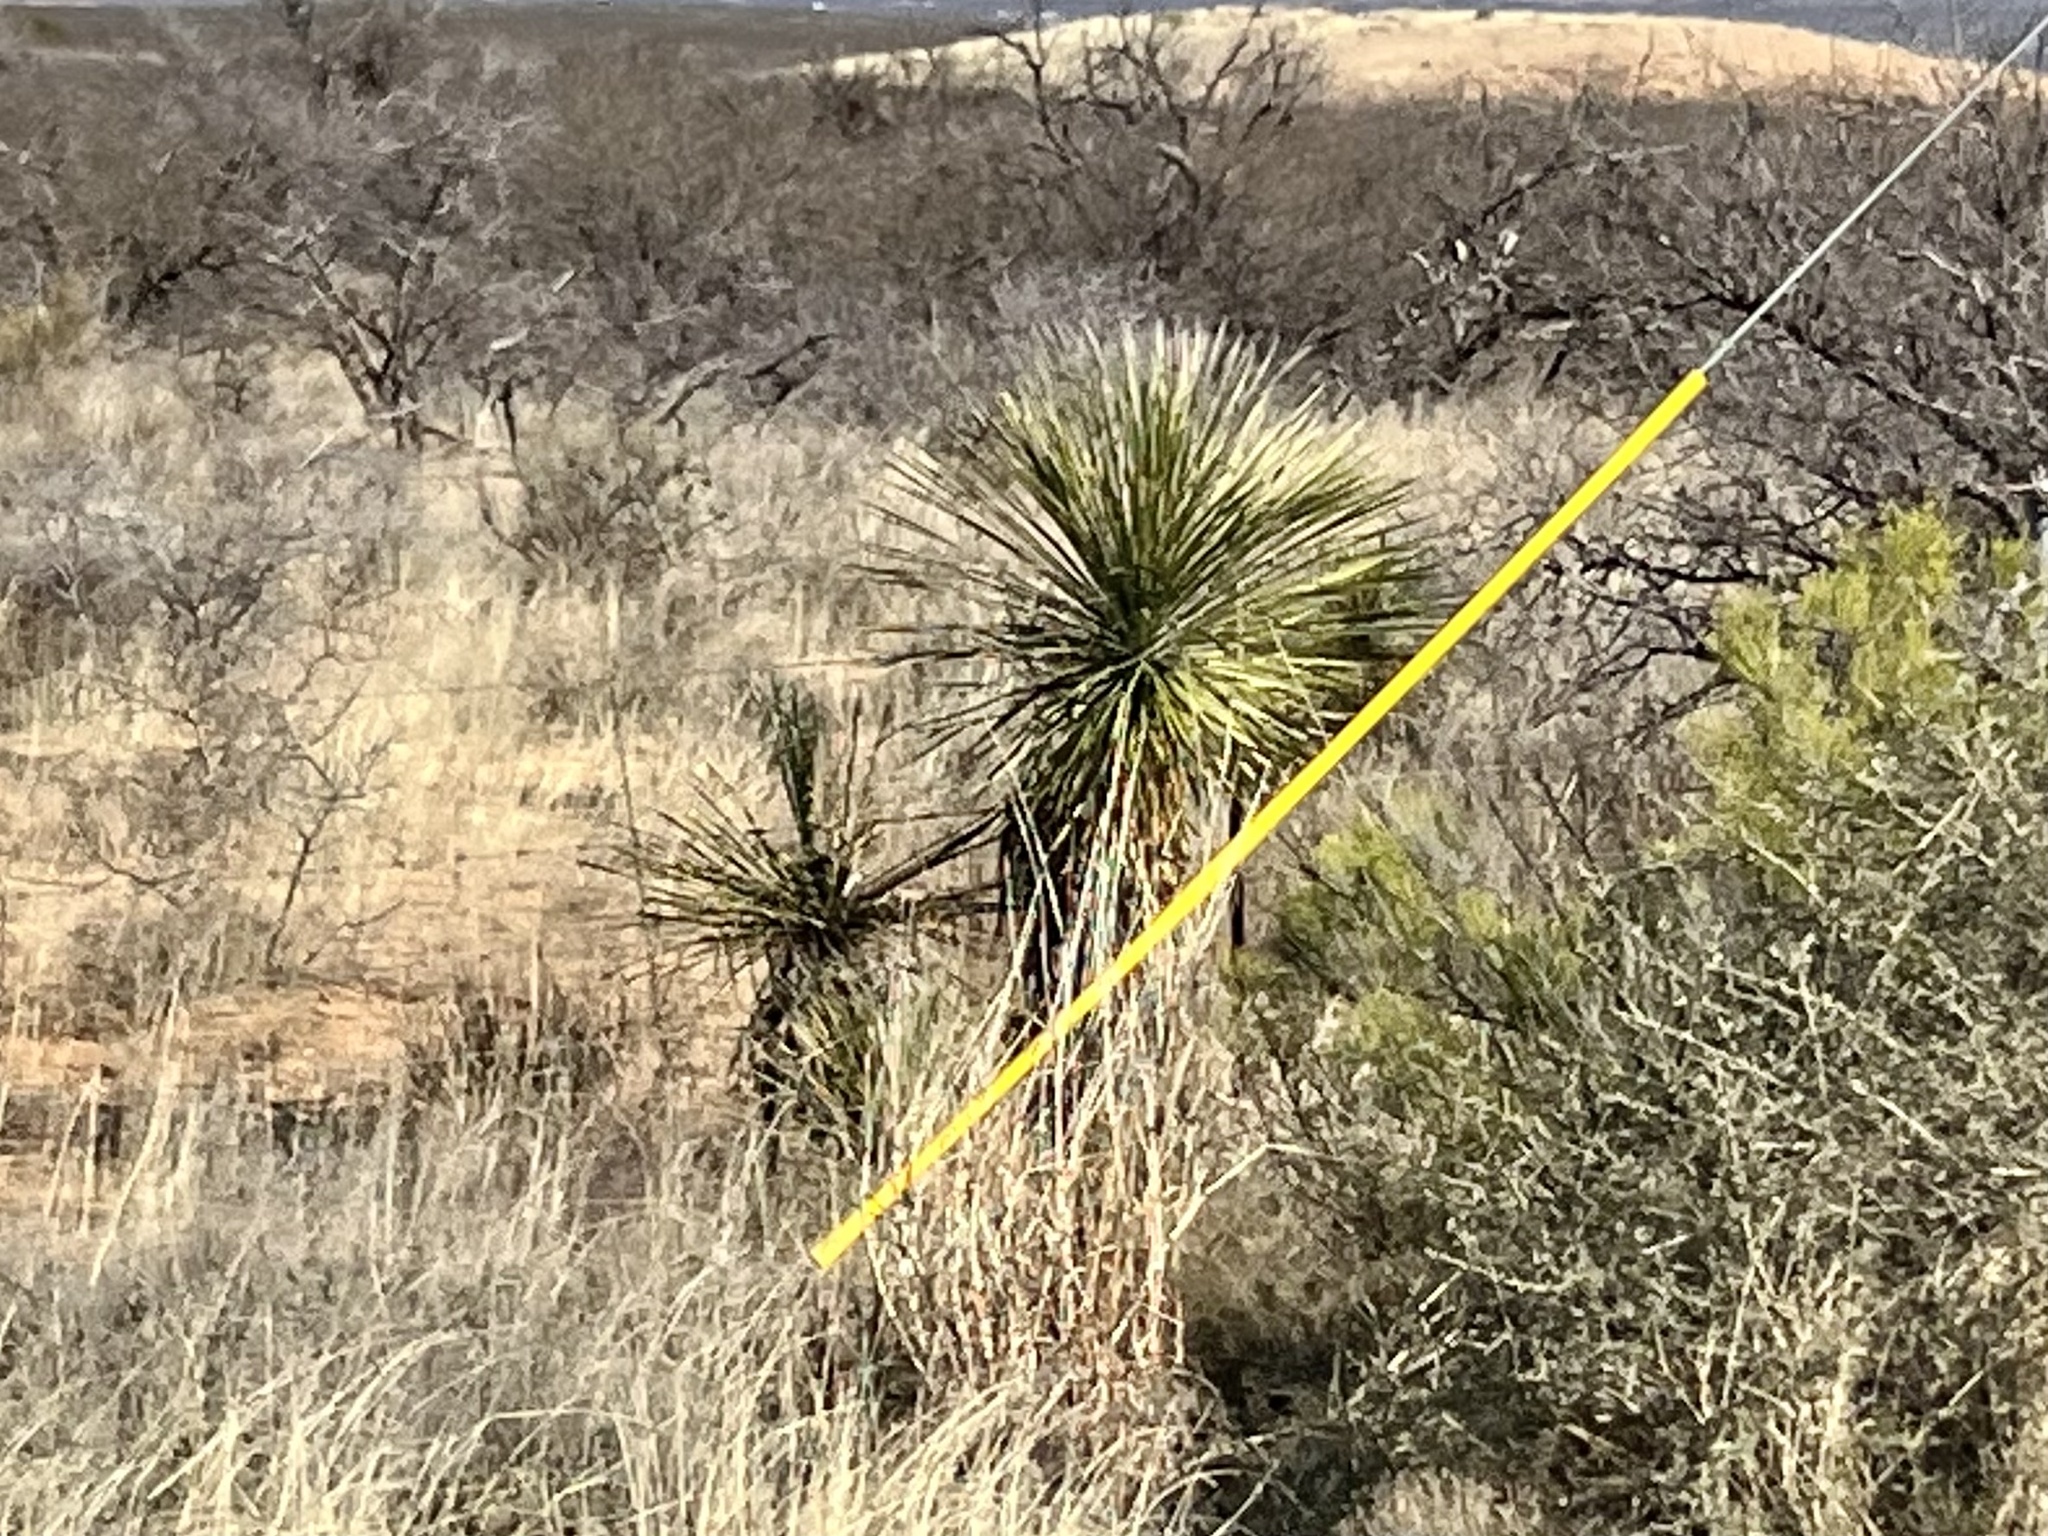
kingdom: Plantae
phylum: Tracheophyta
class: Liliopsida
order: Asparagales
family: Asparagaceae
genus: Yucca
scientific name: Yucca elata
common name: Palmella
